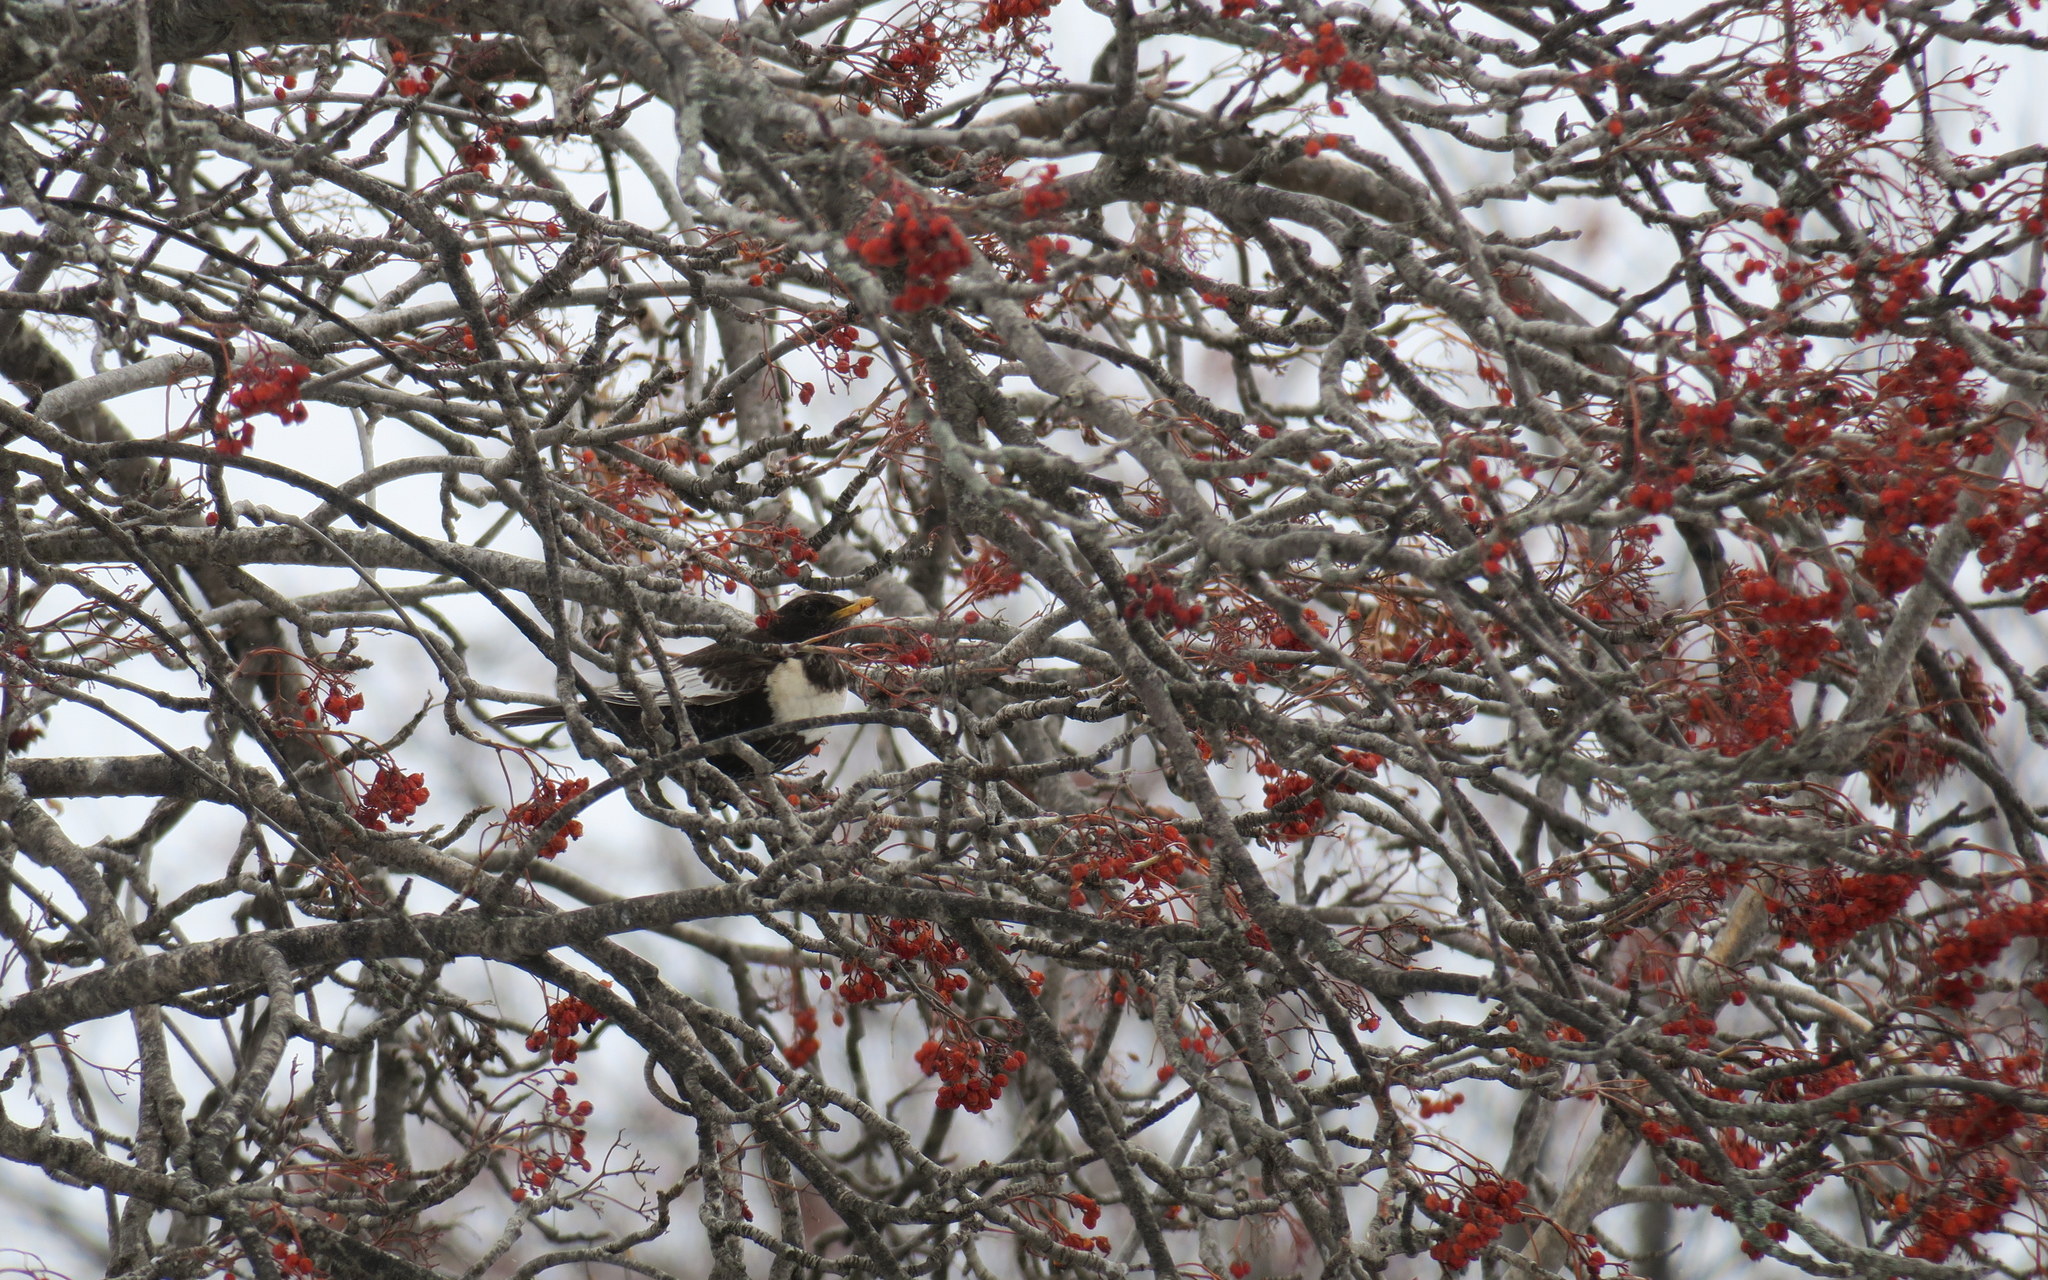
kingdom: Animalia
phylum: Chordata
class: Aves
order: Passeriformes
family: Turdidae
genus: Turdus
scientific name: Turdus torquatus
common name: Ring ouzel
